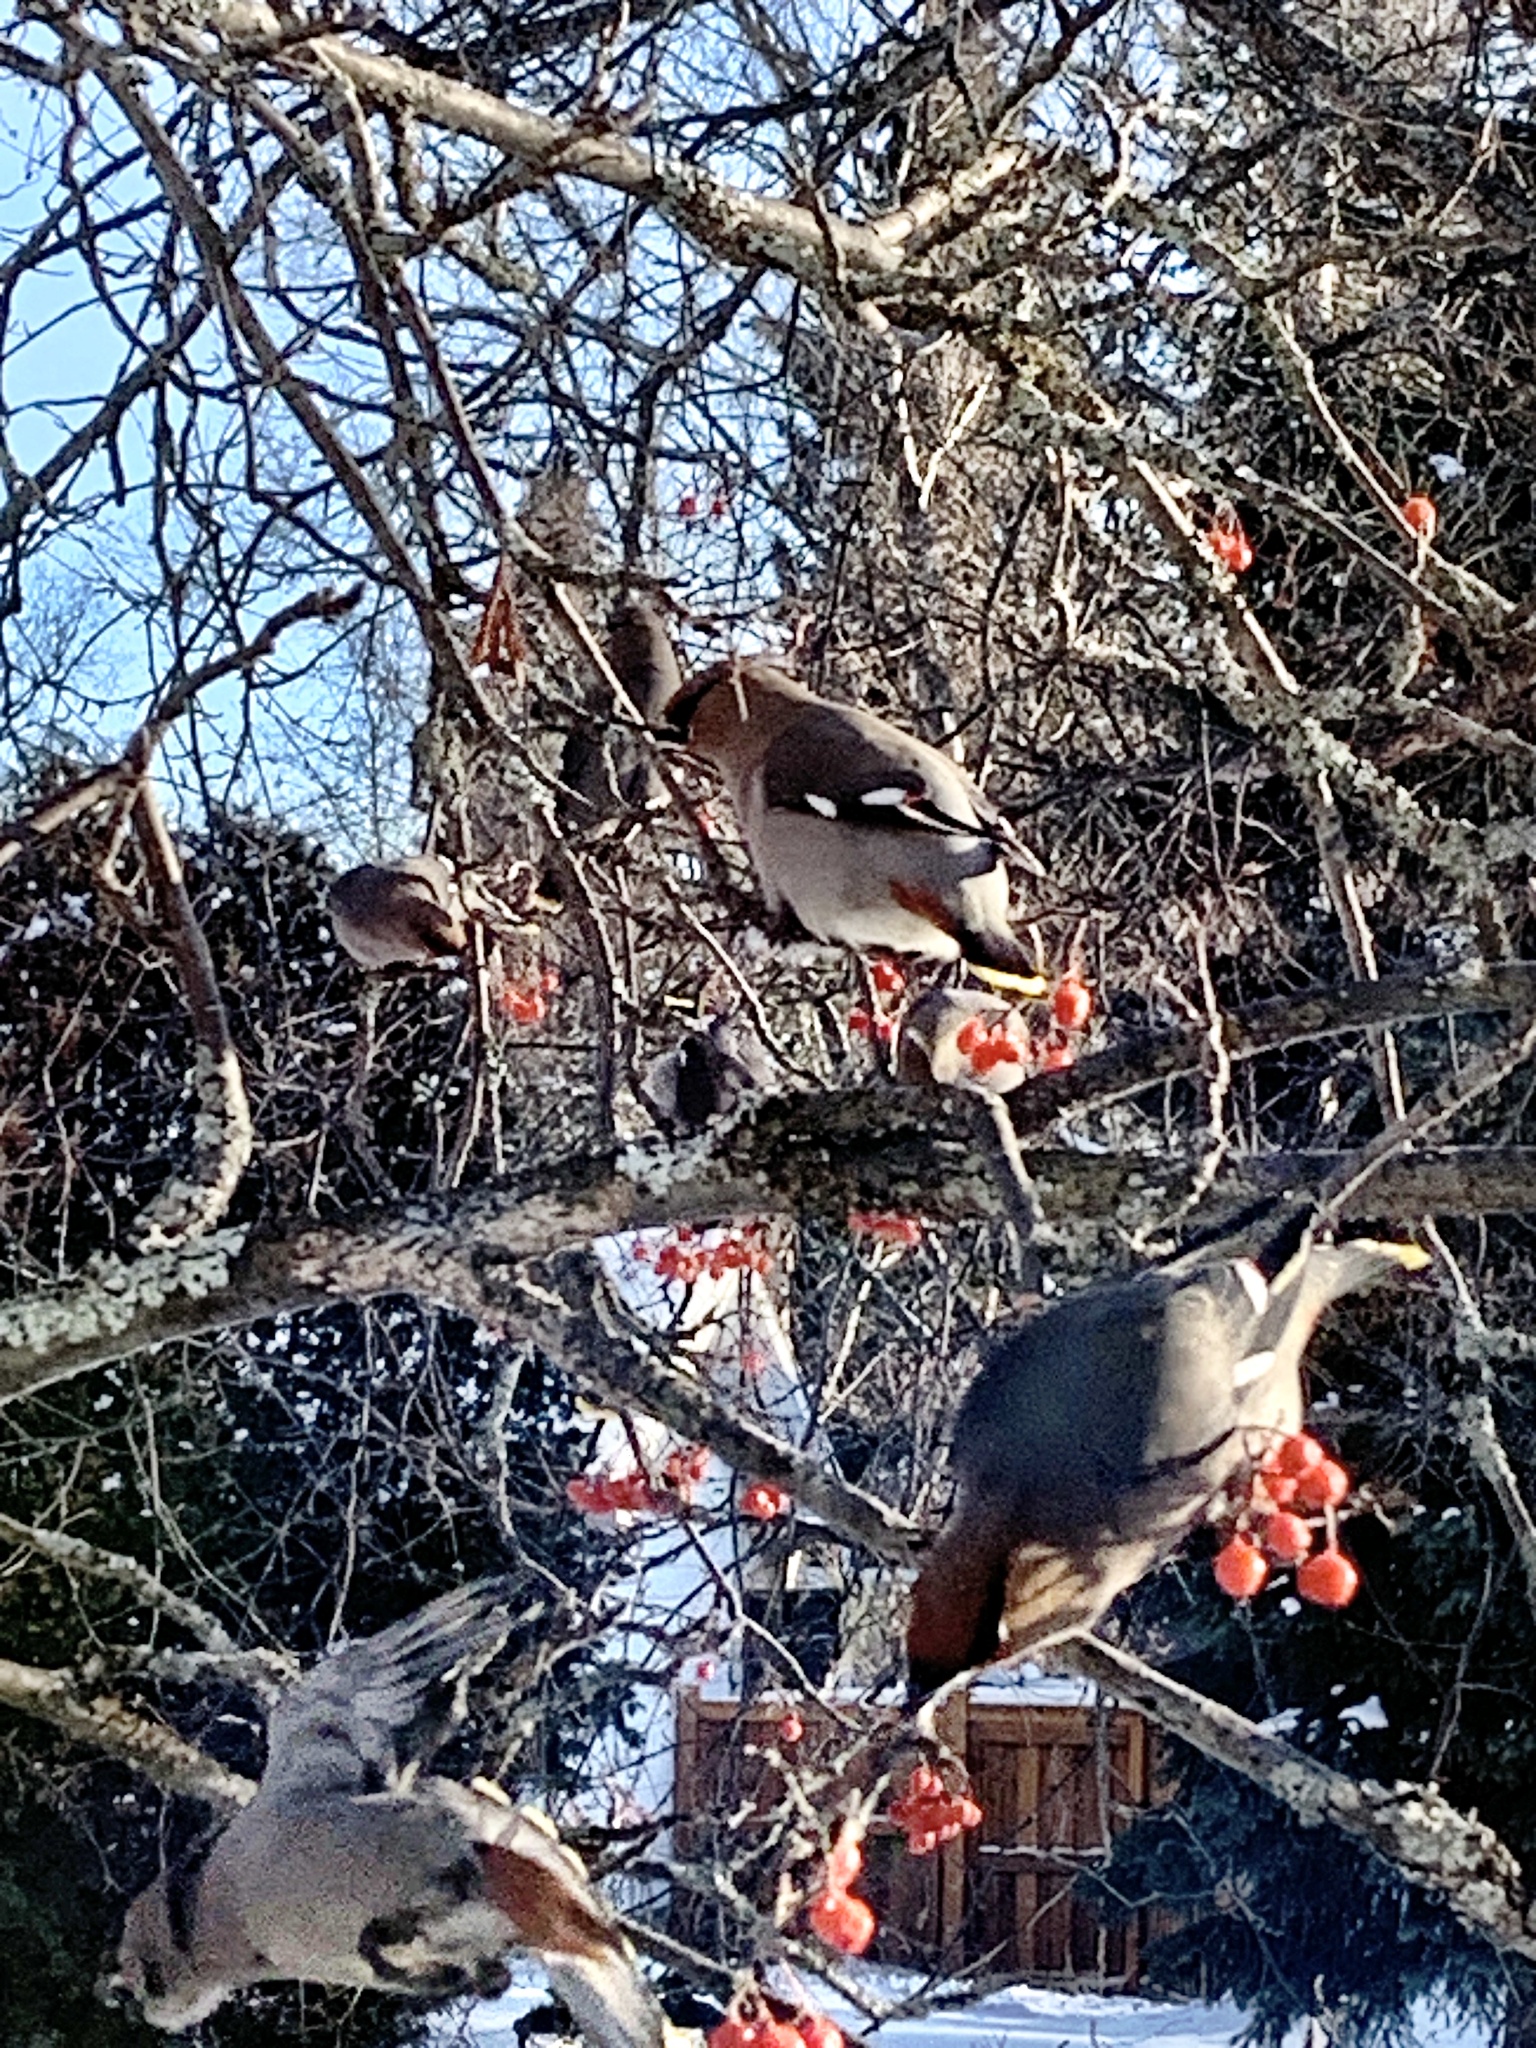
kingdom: Animalia
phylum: Chordata
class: Aves
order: Passeriformes
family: Bombycillidae
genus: Bombycilla
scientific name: Bombycilla garrulus
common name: Bohemian waxwing
